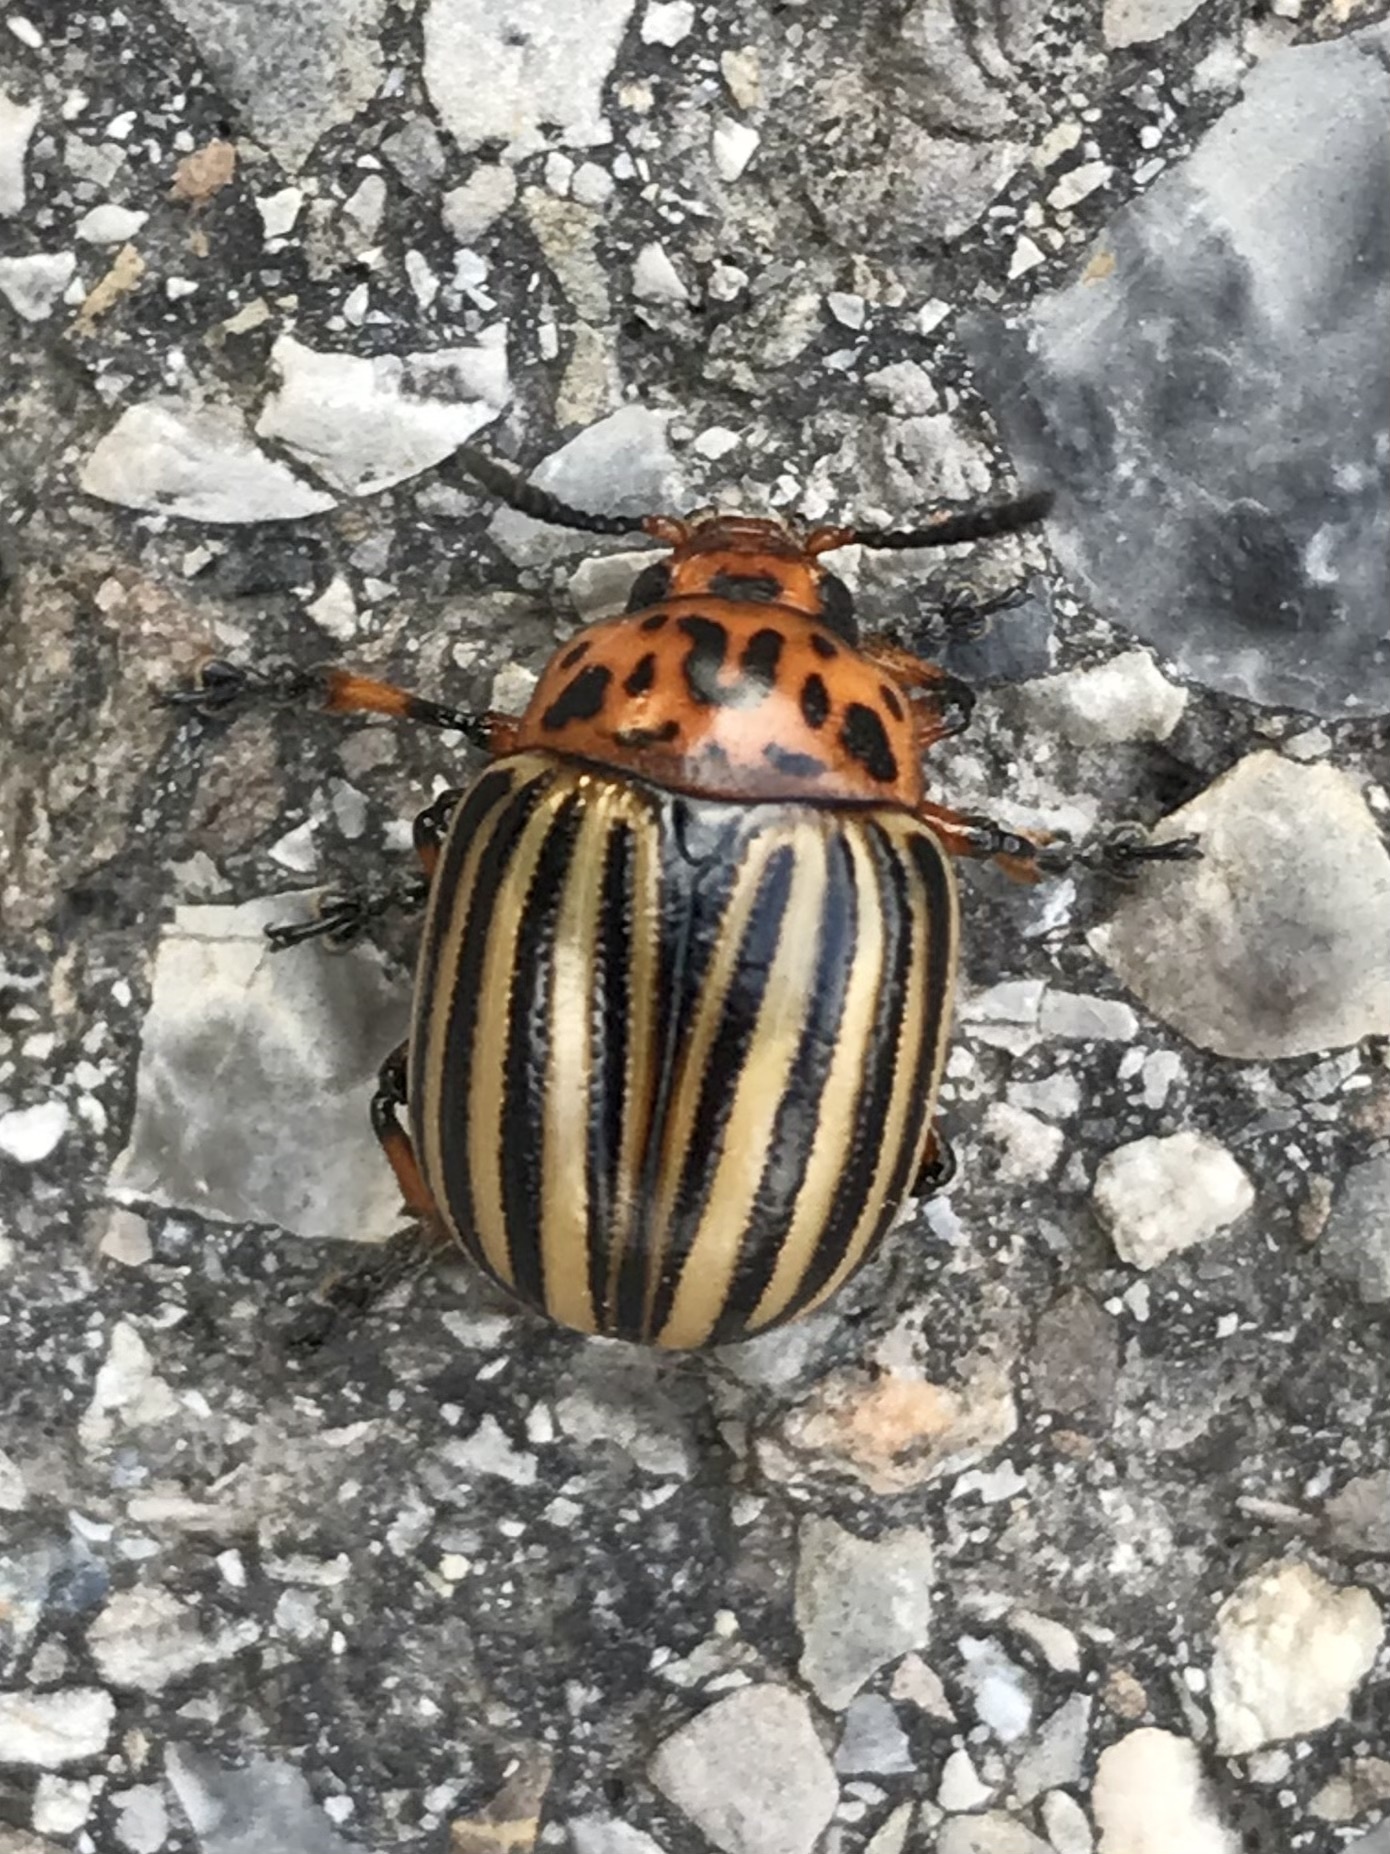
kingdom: Animalia
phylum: Arthropoda
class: Insecta
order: Coleoptera
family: Chrysomelidae
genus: Leptinotarsa
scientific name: Leptinotarsa decemlineata
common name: Colorado potato beetle
